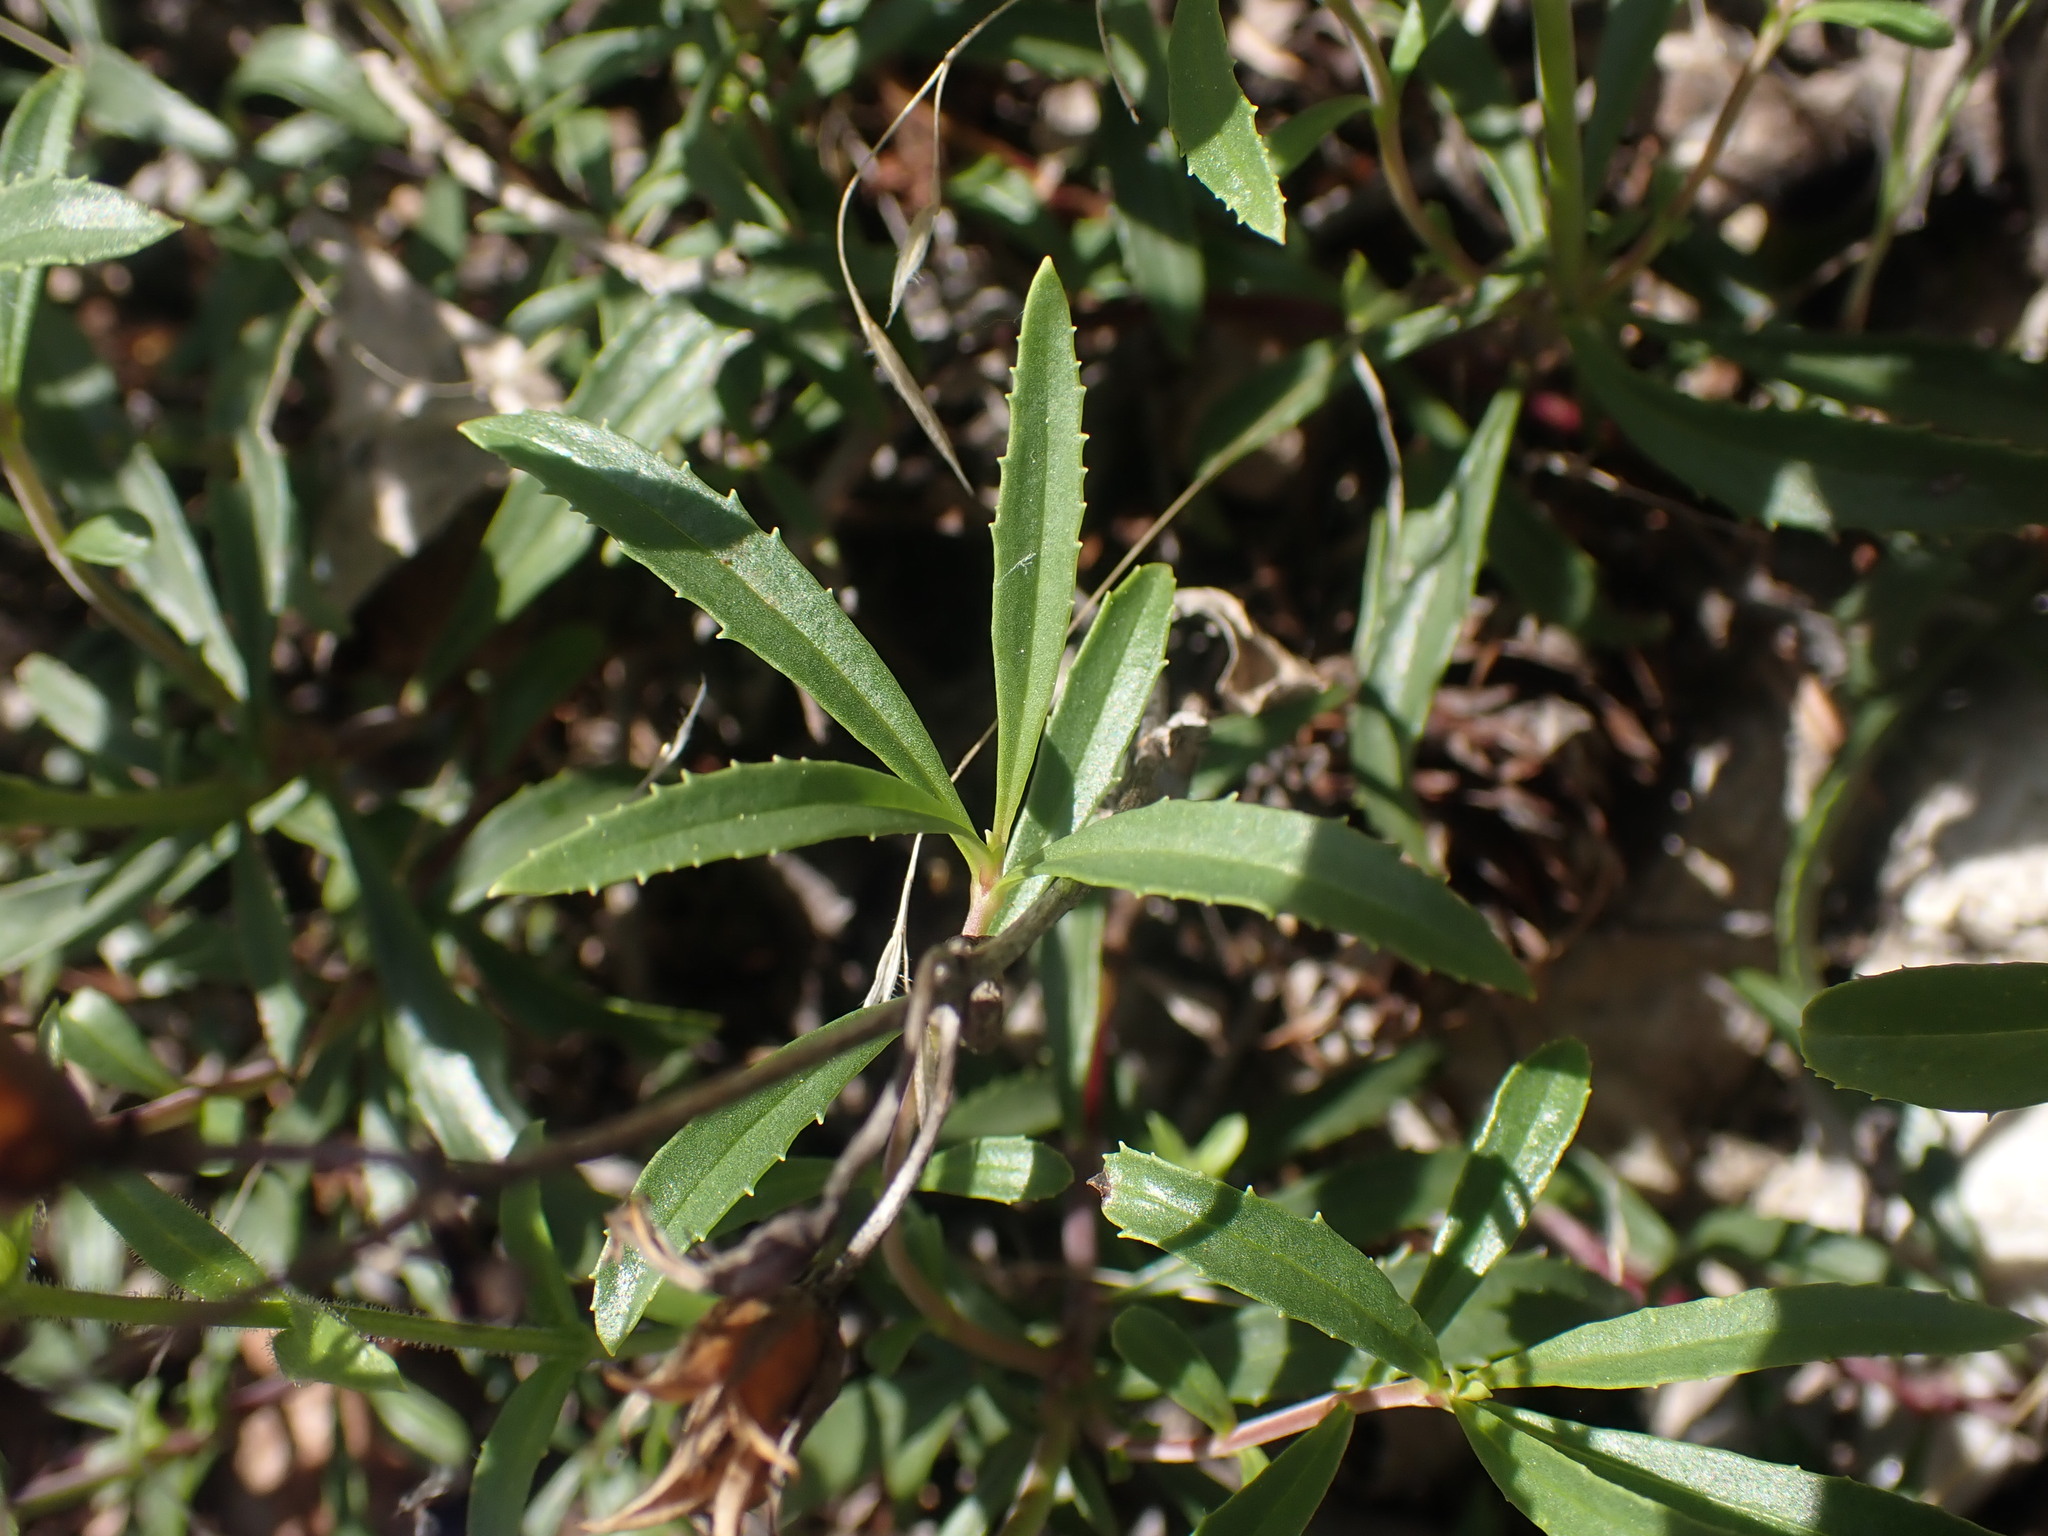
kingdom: Plantae
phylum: Tracheophyta
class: Magnoliopsida
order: Lamiales
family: Plantaginaceae
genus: Penstemon
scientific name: Penstemon fruticosus
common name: Bush penstemon
